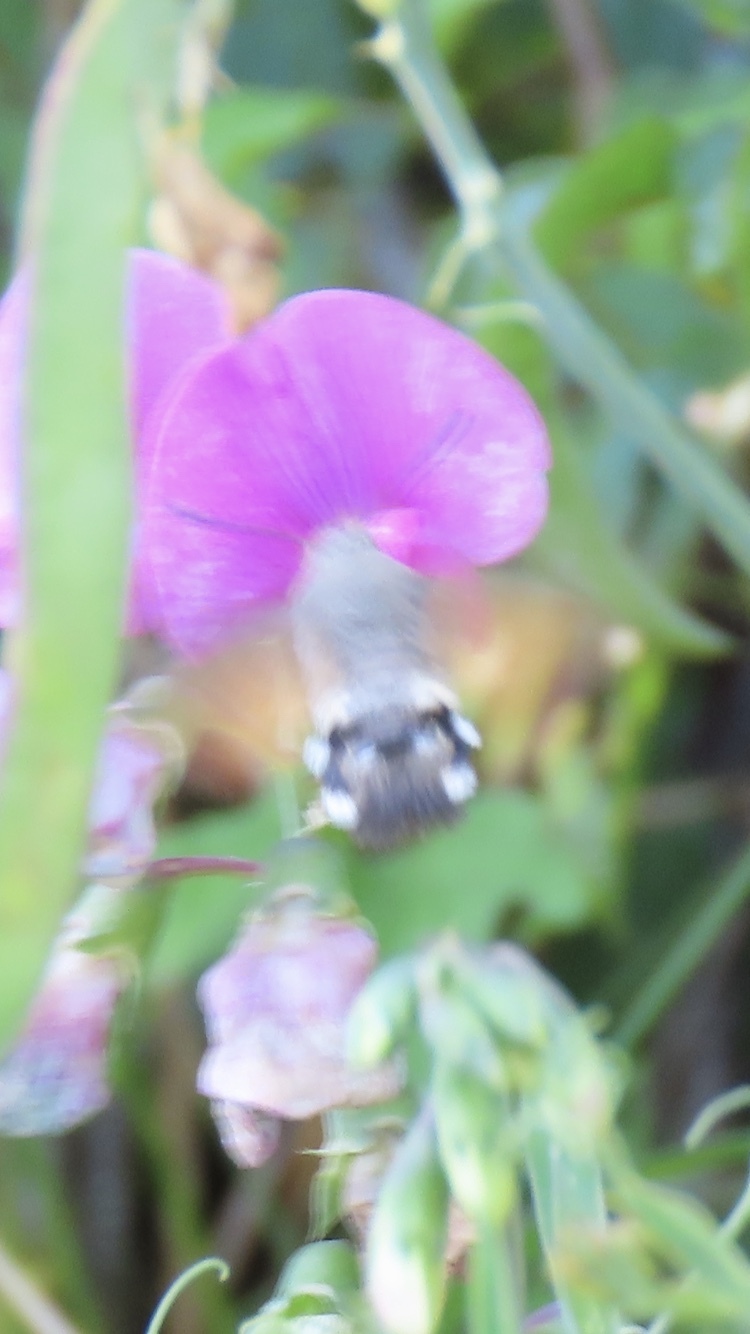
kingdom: Animalia
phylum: Arthropoda
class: Insecta
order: Lepidoptera
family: Sphingidae
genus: Macroglossum
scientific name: Macroglossum stellatarum
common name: Humming-bird hawk-moth
